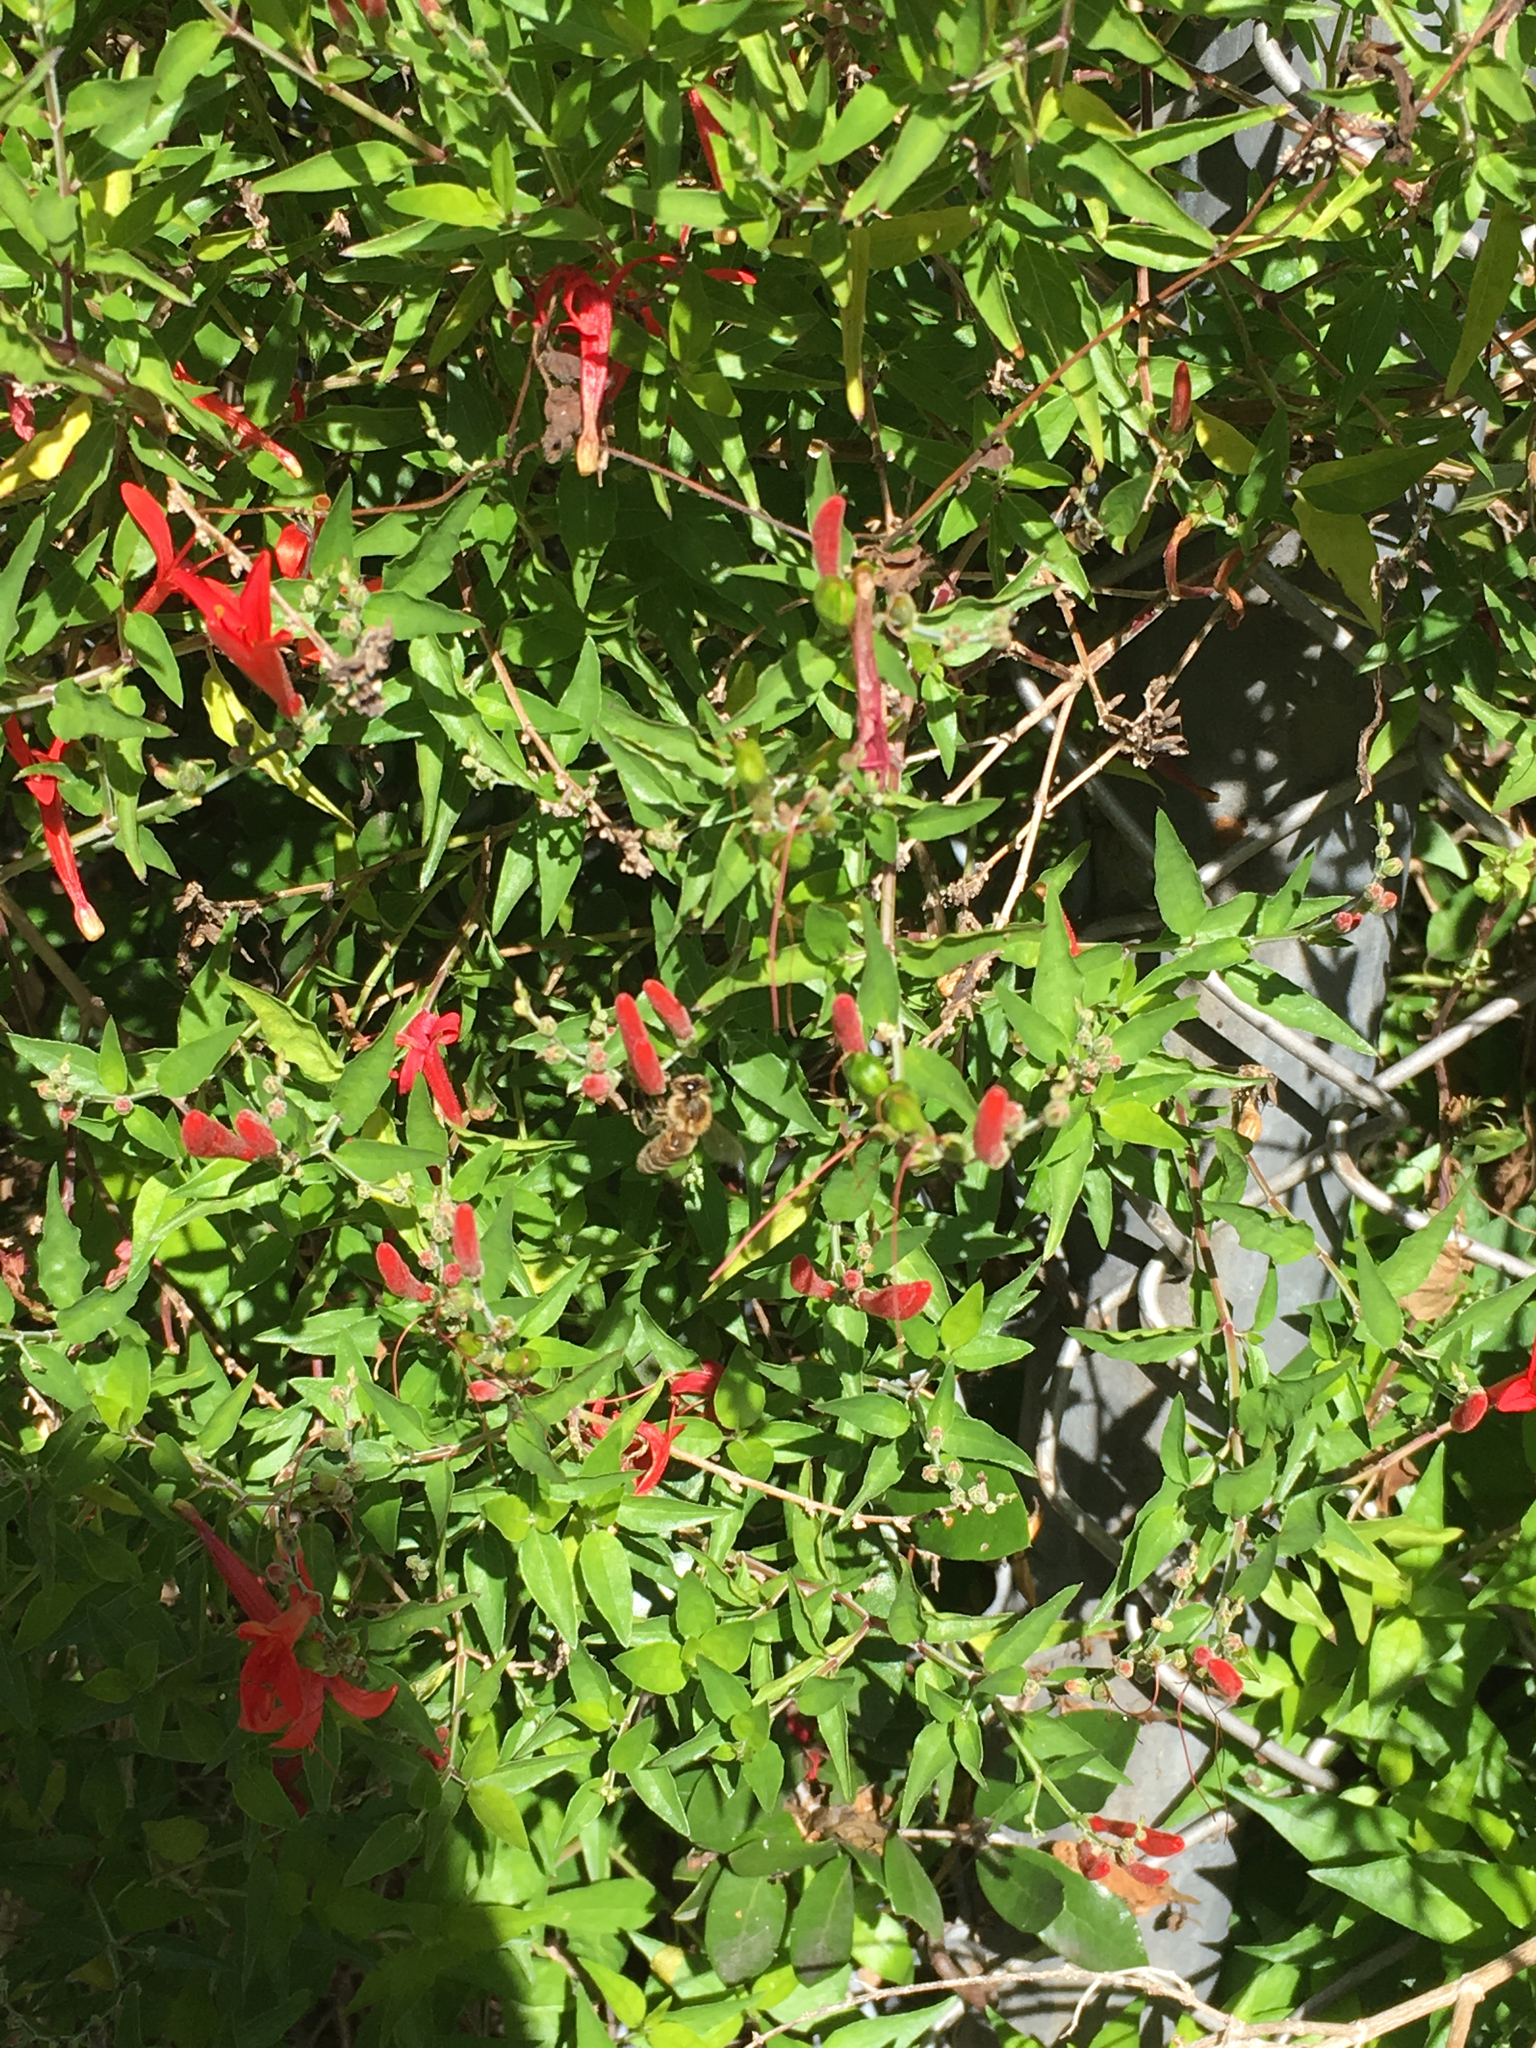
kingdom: Animalia
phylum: Arthropoda
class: Insecta
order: Hymenoptera
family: Apidae
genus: Apis
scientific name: Apis mellifera
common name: Honey bee
